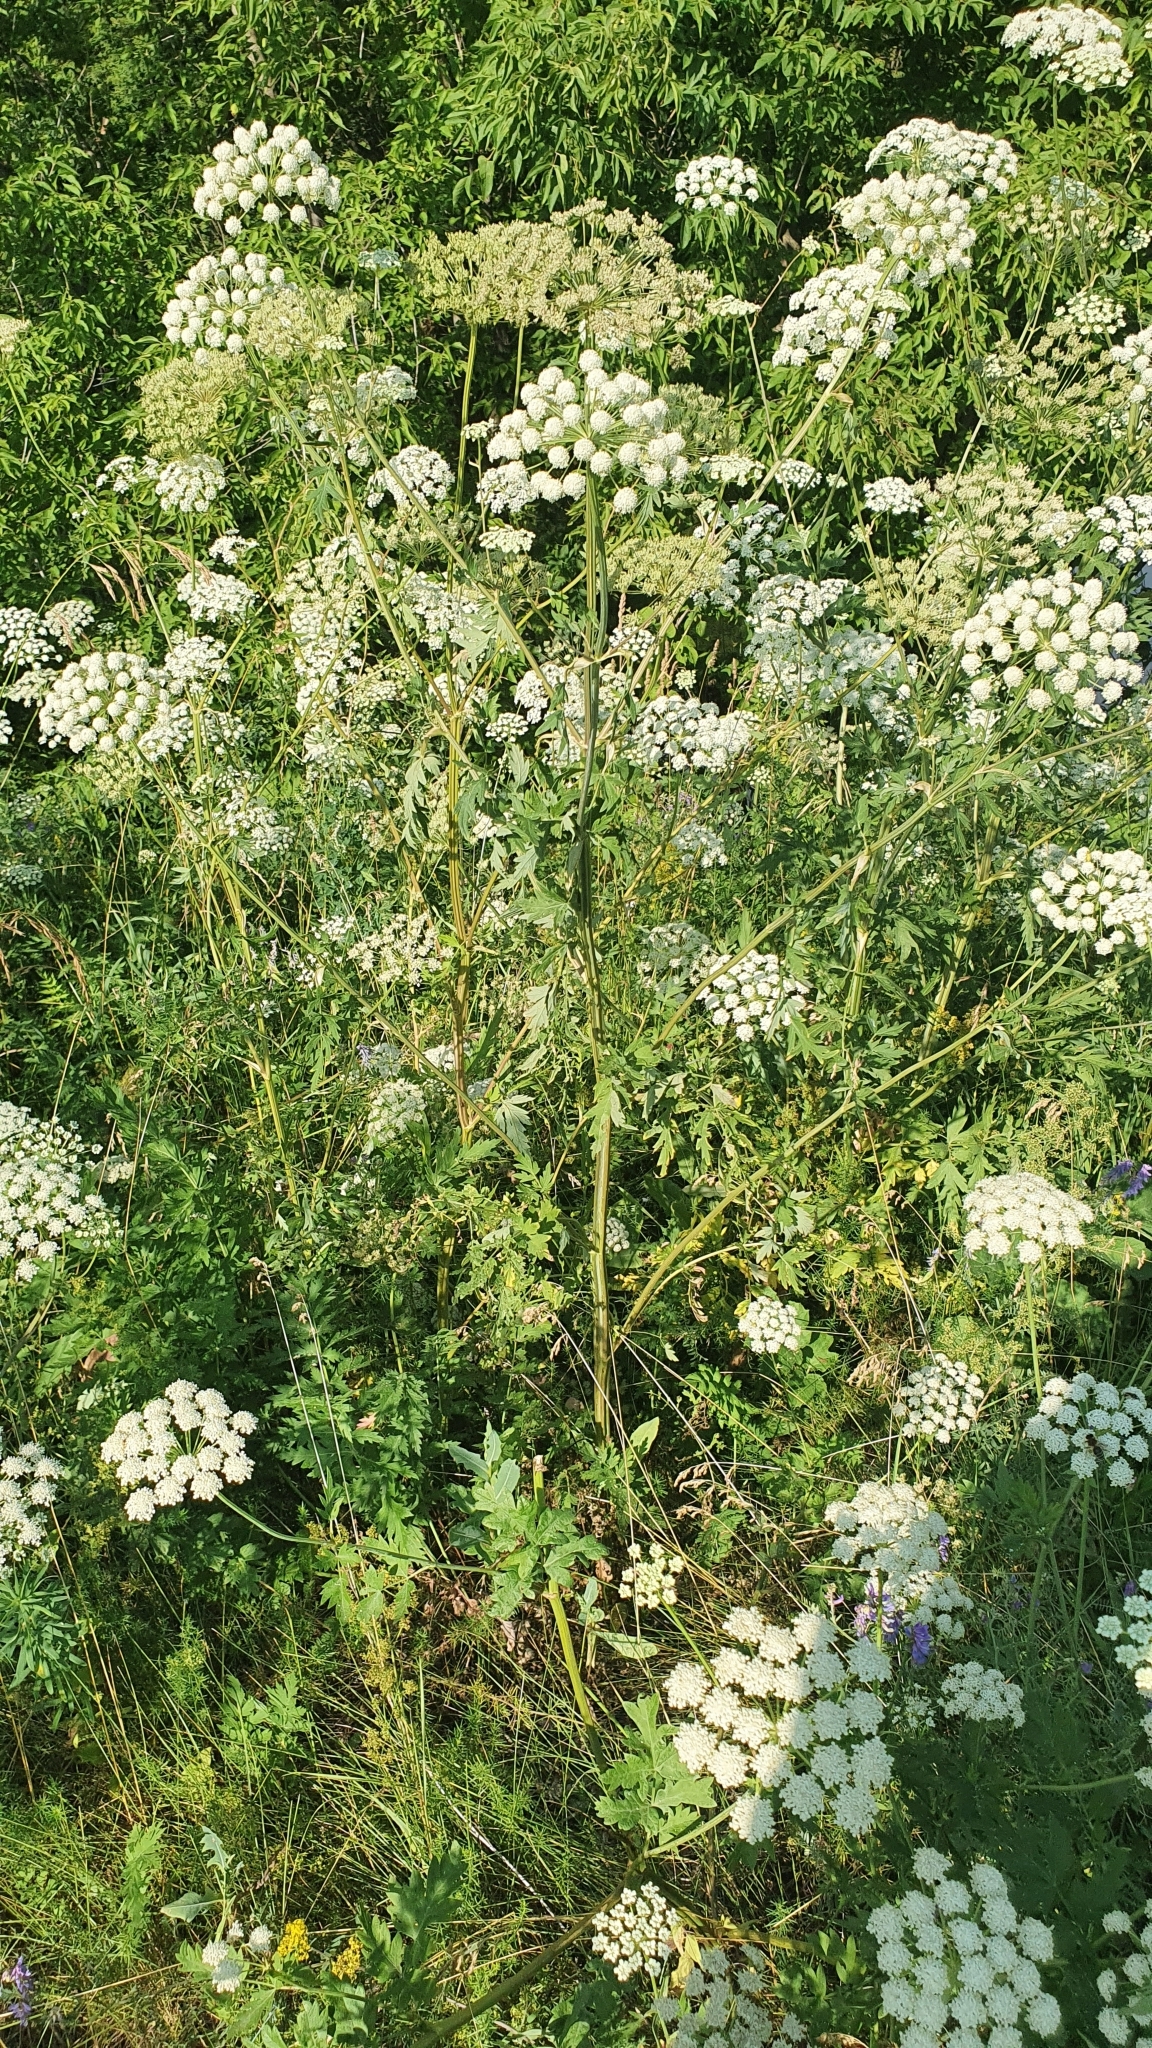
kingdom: Plantae
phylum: Tracheophyta
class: Magnoliopsida
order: Apiales
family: Apiaceae
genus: Seseli
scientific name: Seseli libanotis
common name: Mooncarrot
